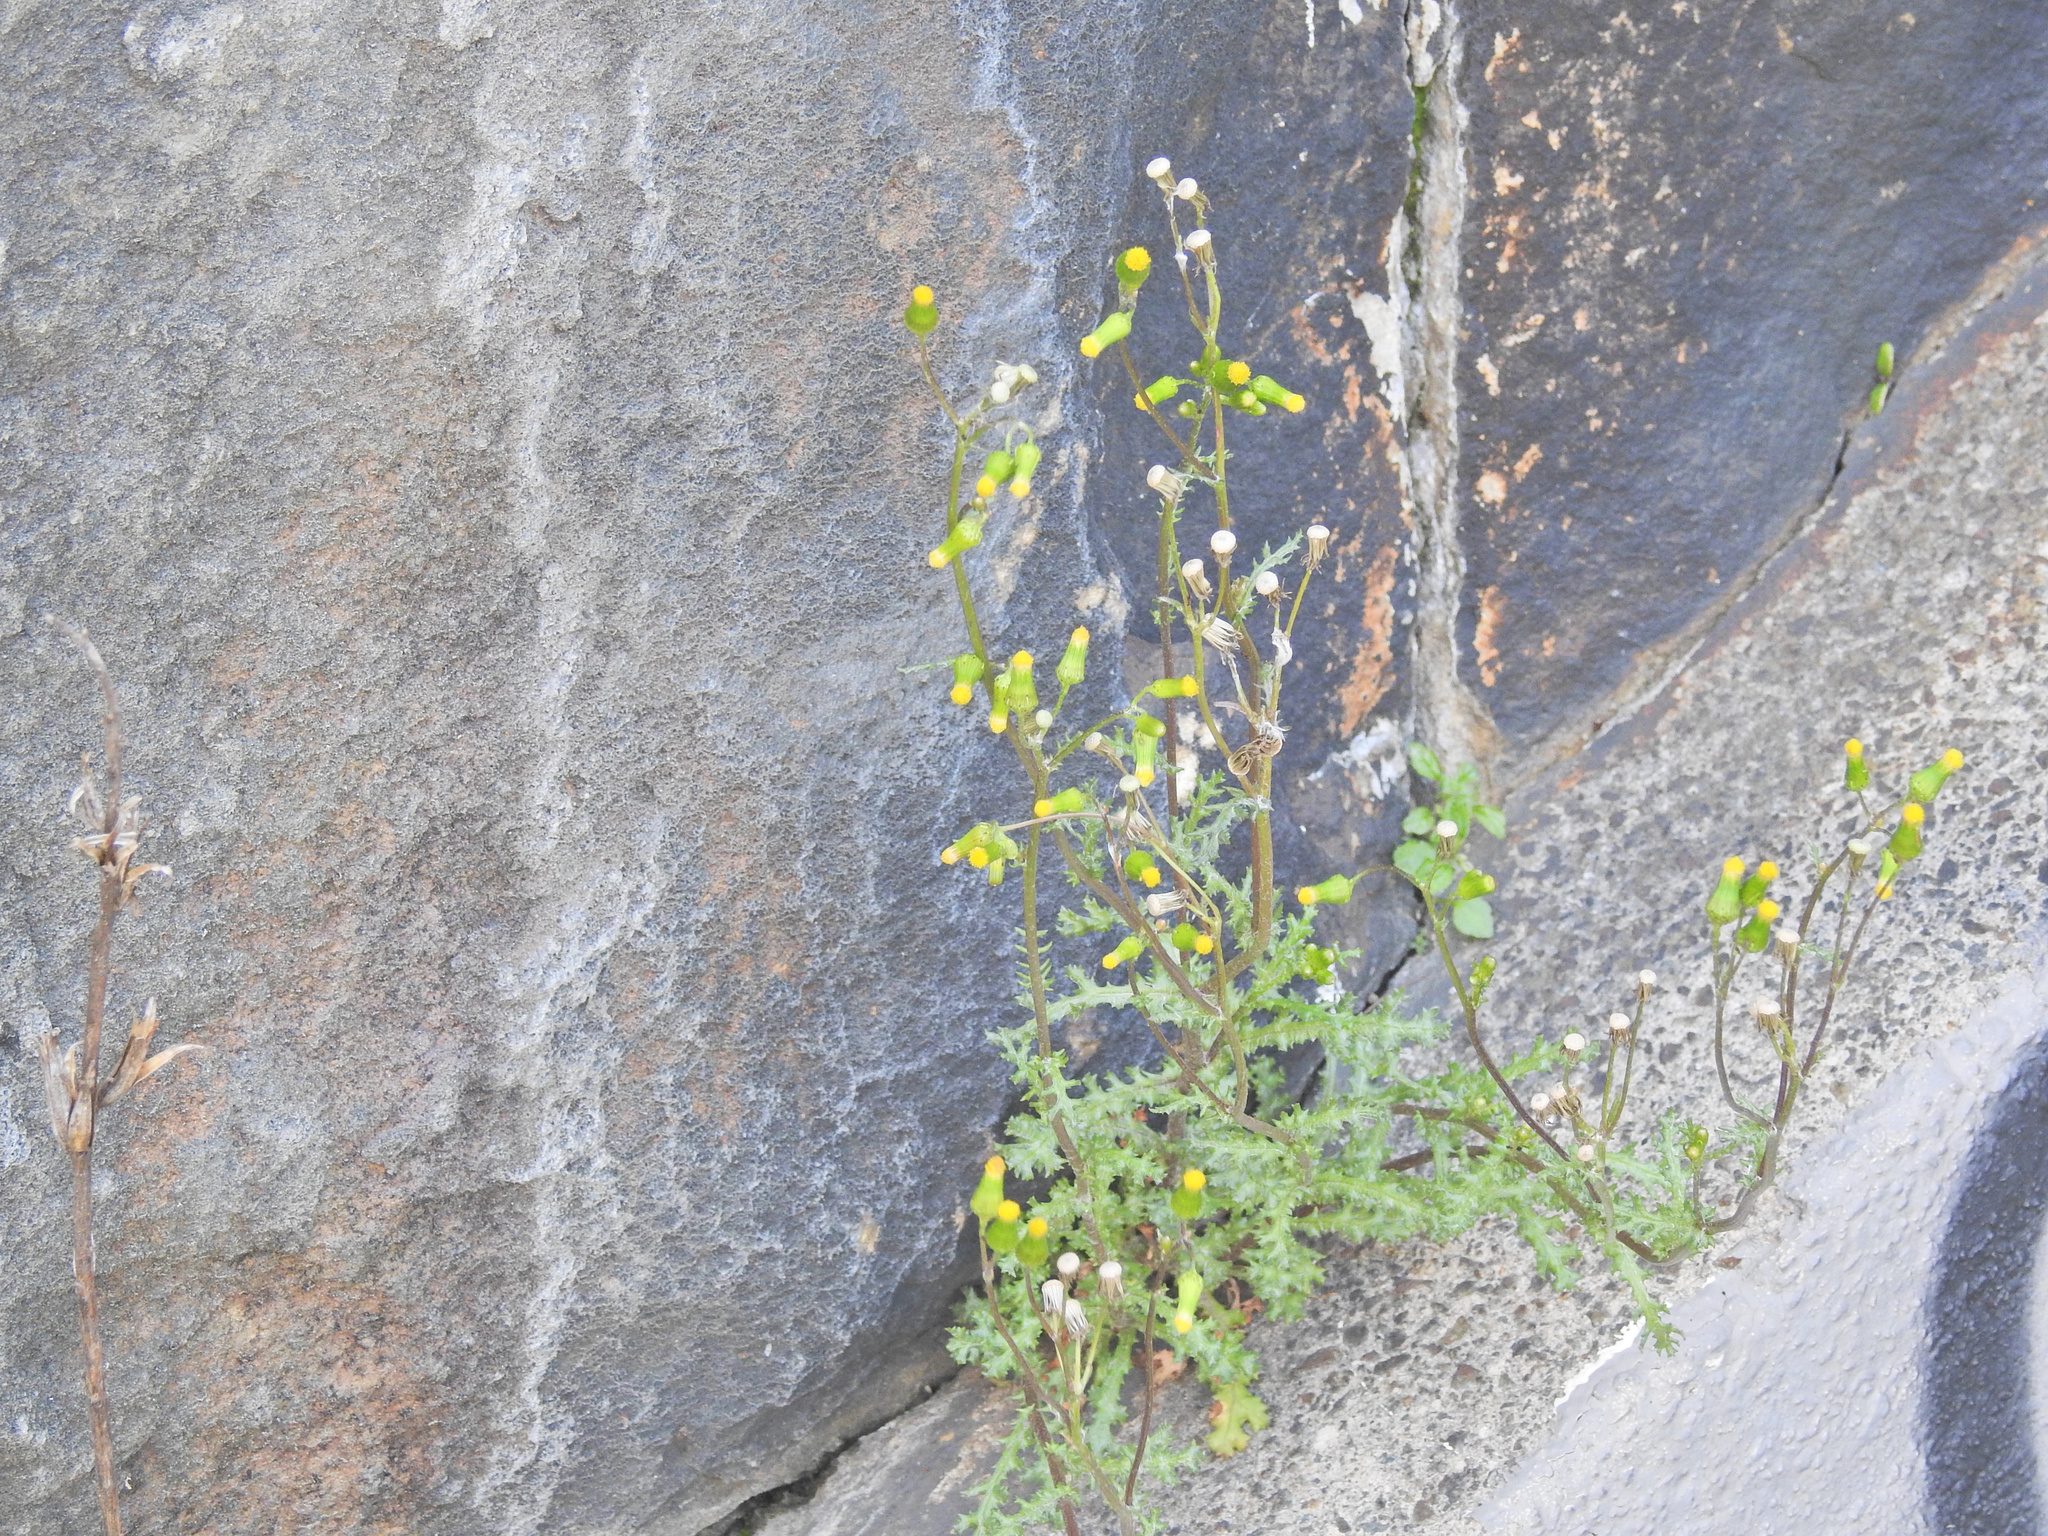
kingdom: Plantae
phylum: Tracheophyta
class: Magnoliopsida
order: Asterales
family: Asteraceae
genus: Senecio
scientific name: Senecio vulgaris
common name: Old-man-in-the-spring
